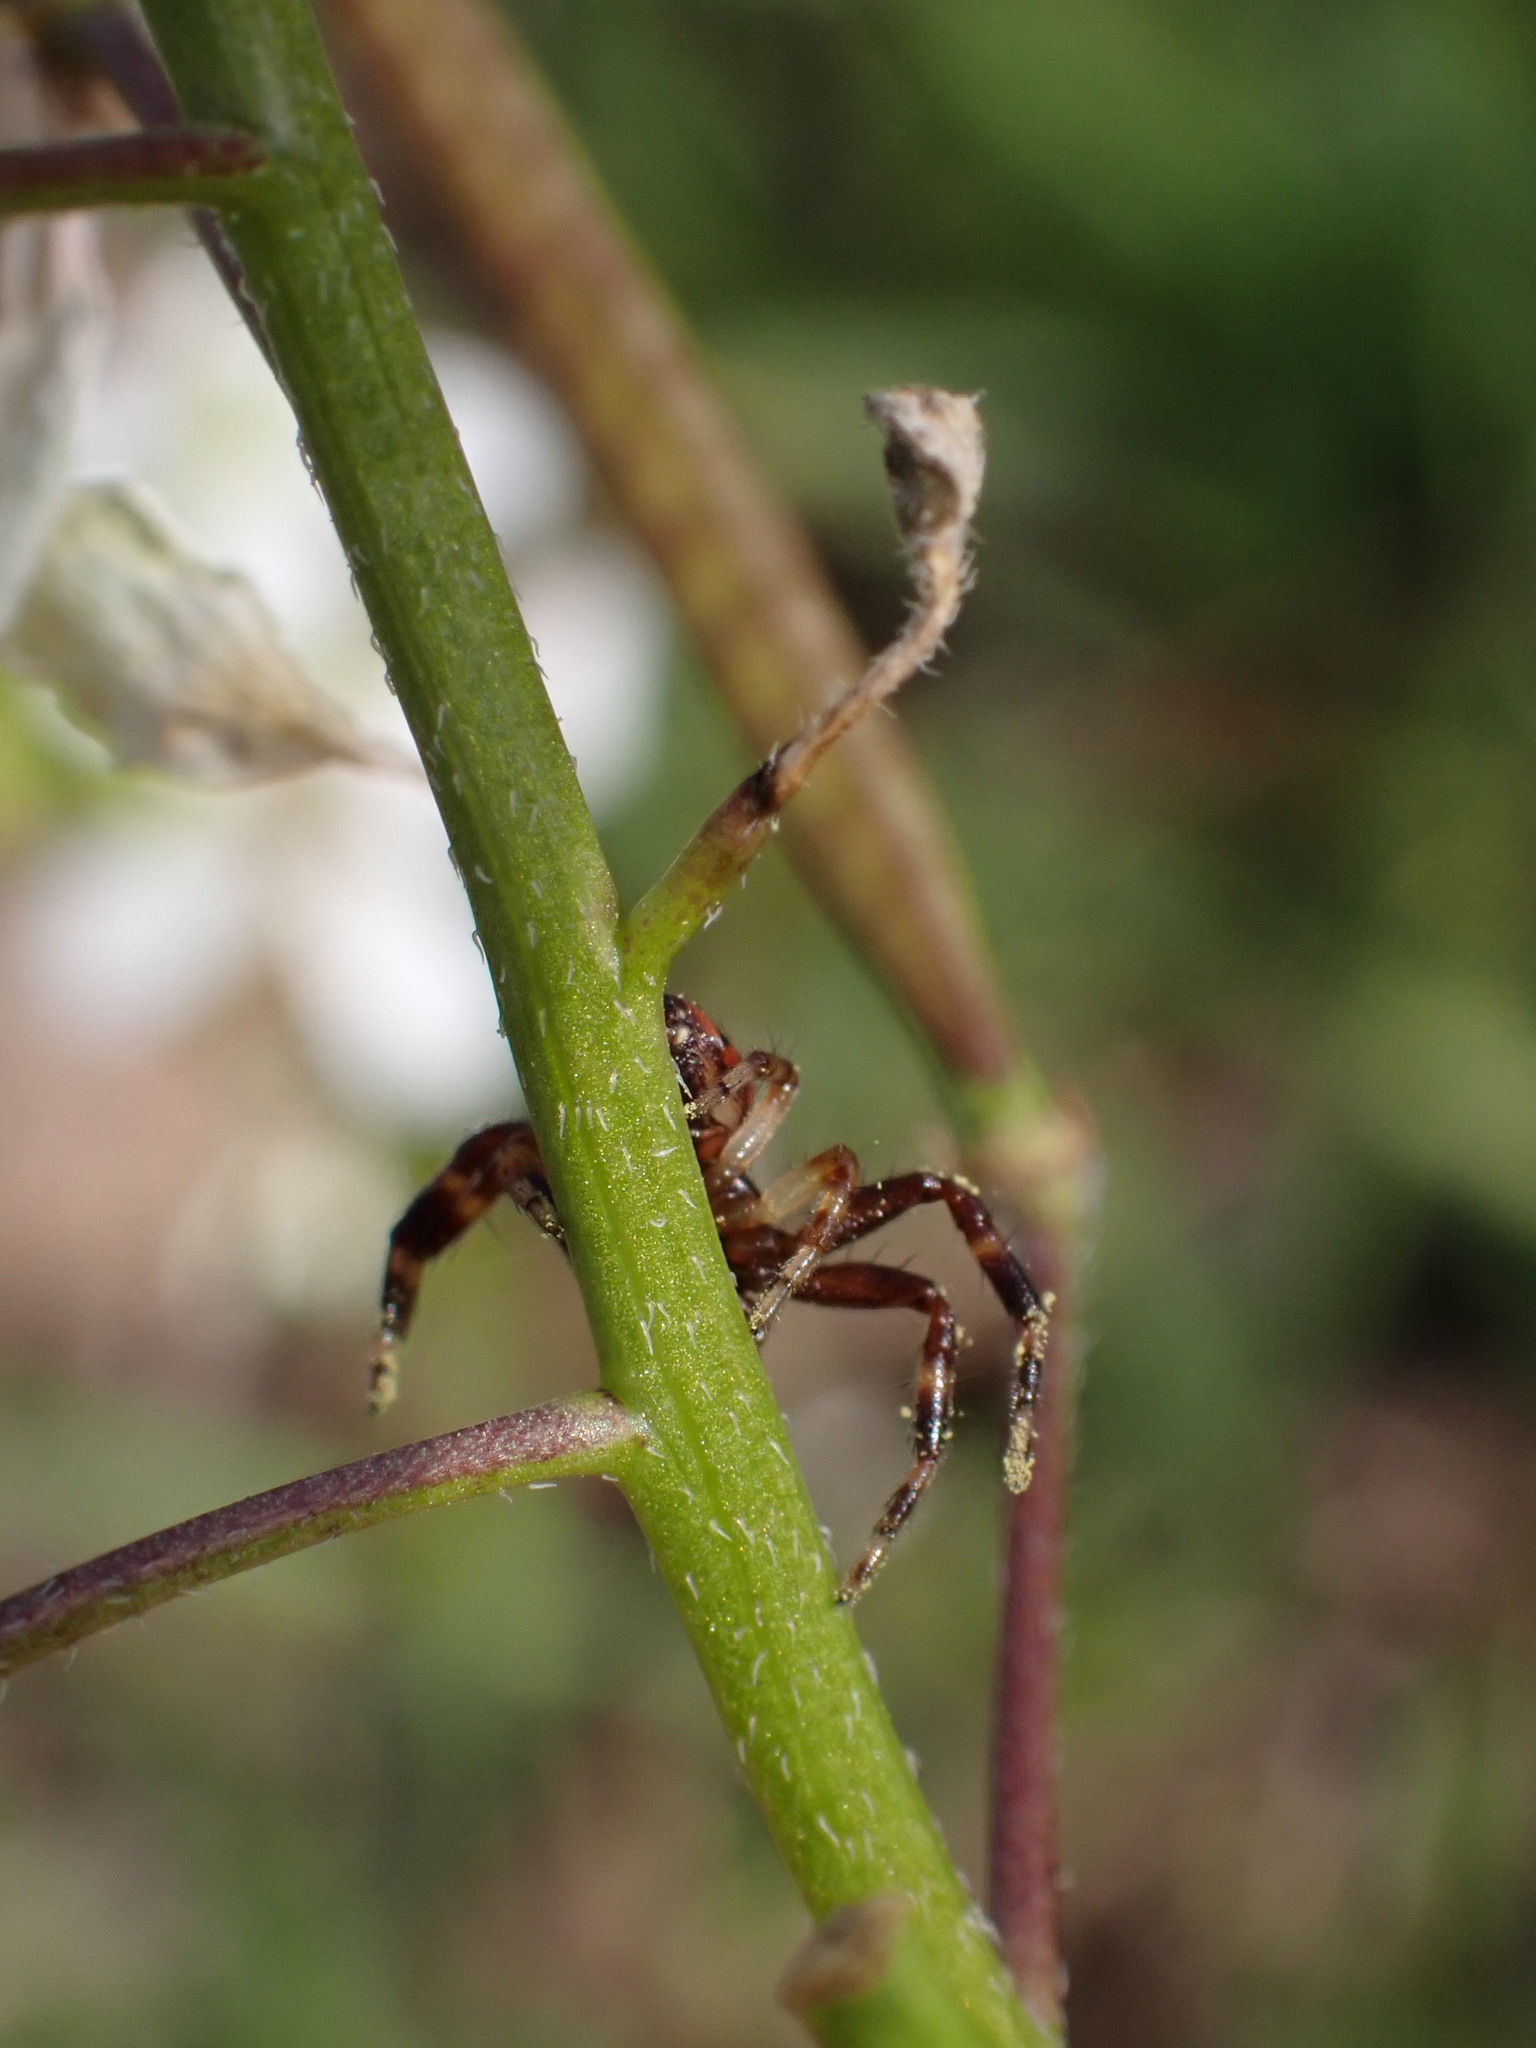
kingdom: Animalia
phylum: Arthropoda
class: Arachnida
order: Araneae
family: Thomisidae
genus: Synema
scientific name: Synema globosum
